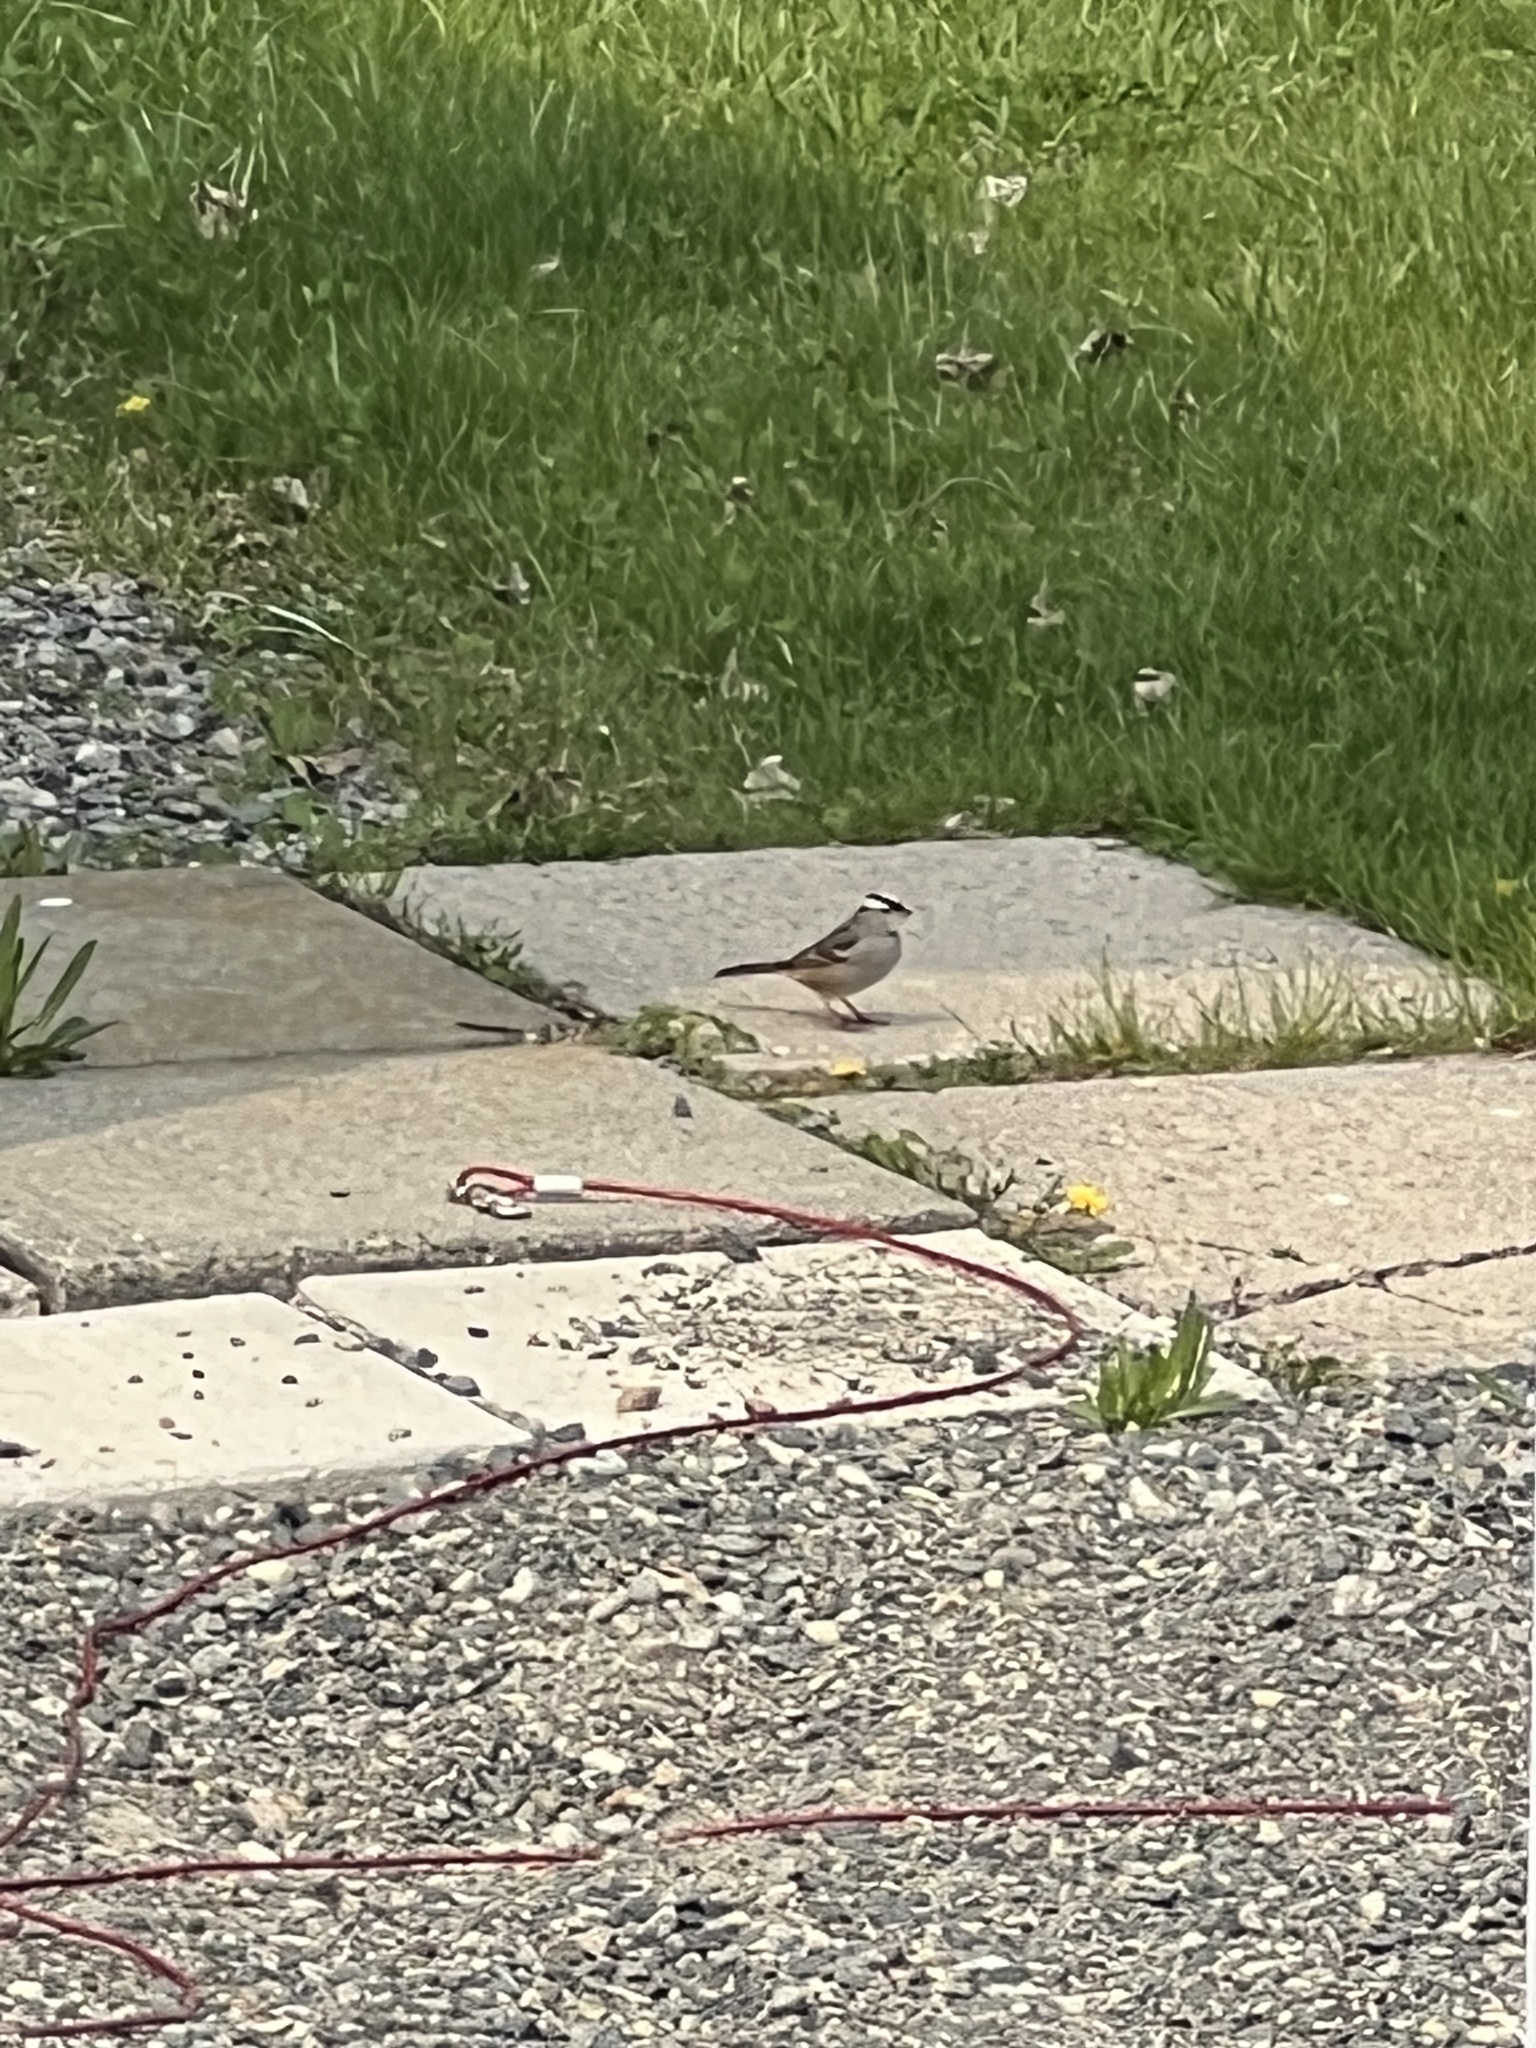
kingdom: Animalia
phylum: Chordata
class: Aves
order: Passeriformes
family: Passerellidae
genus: Zonotrichia
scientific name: Zonotrichia leucophrys
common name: White-crowned sparrow
